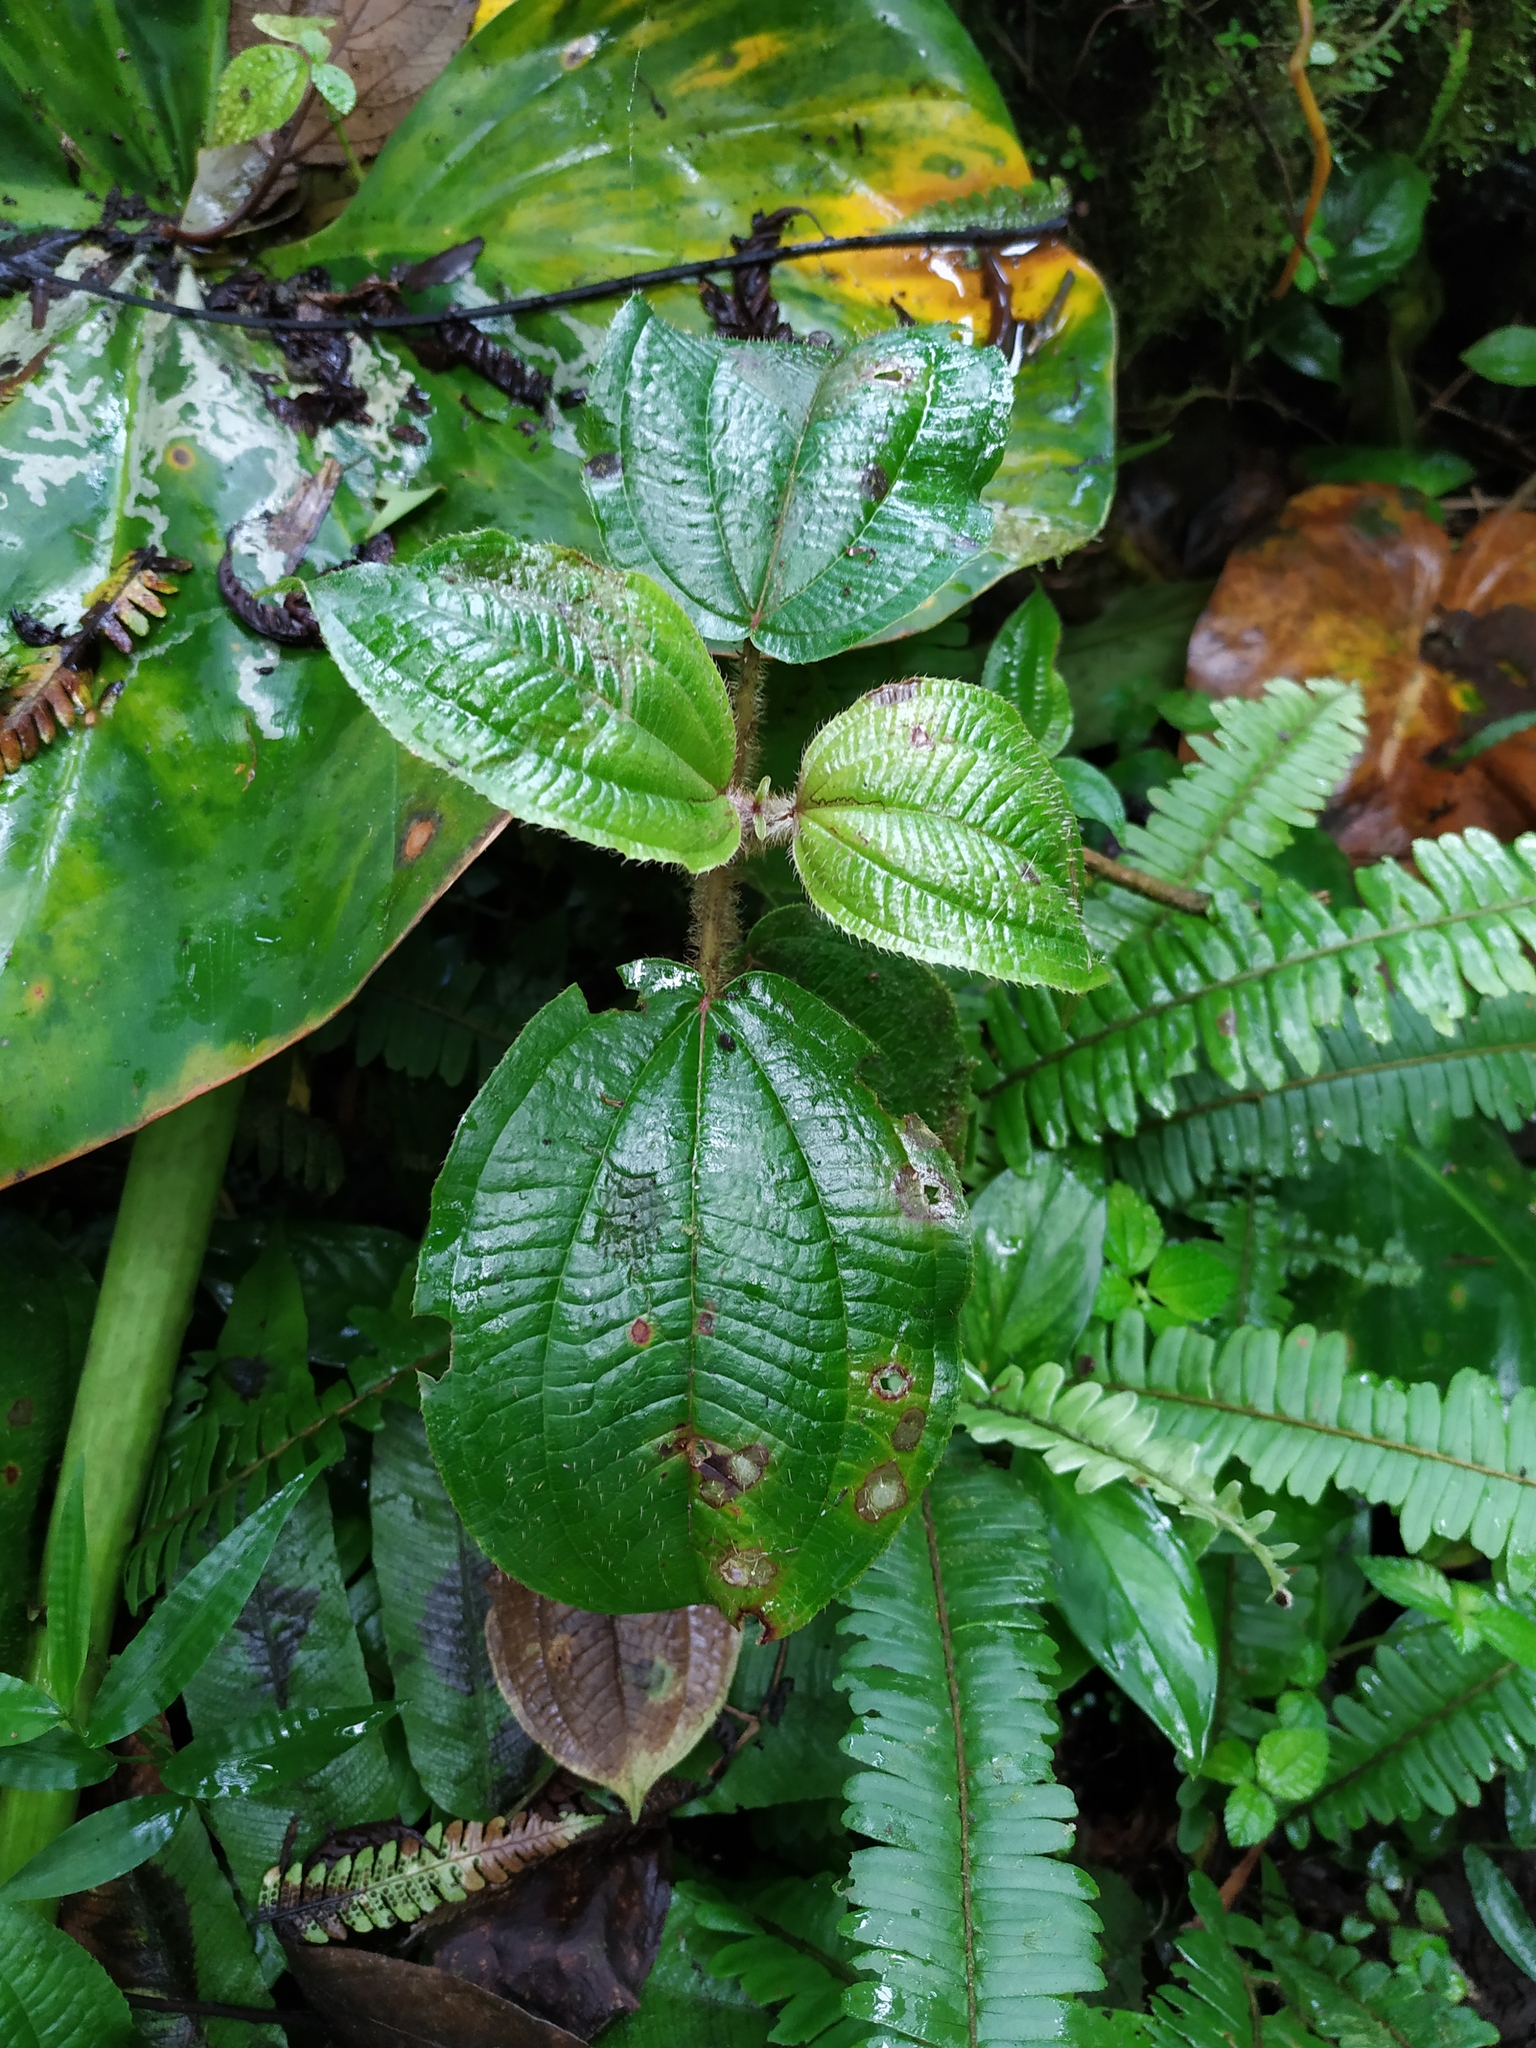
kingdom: Plantae
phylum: Tracheophyta
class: Magnoliopsida
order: Myrtales
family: Melastomataceae
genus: Miconia
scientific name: Miconia purpurea
